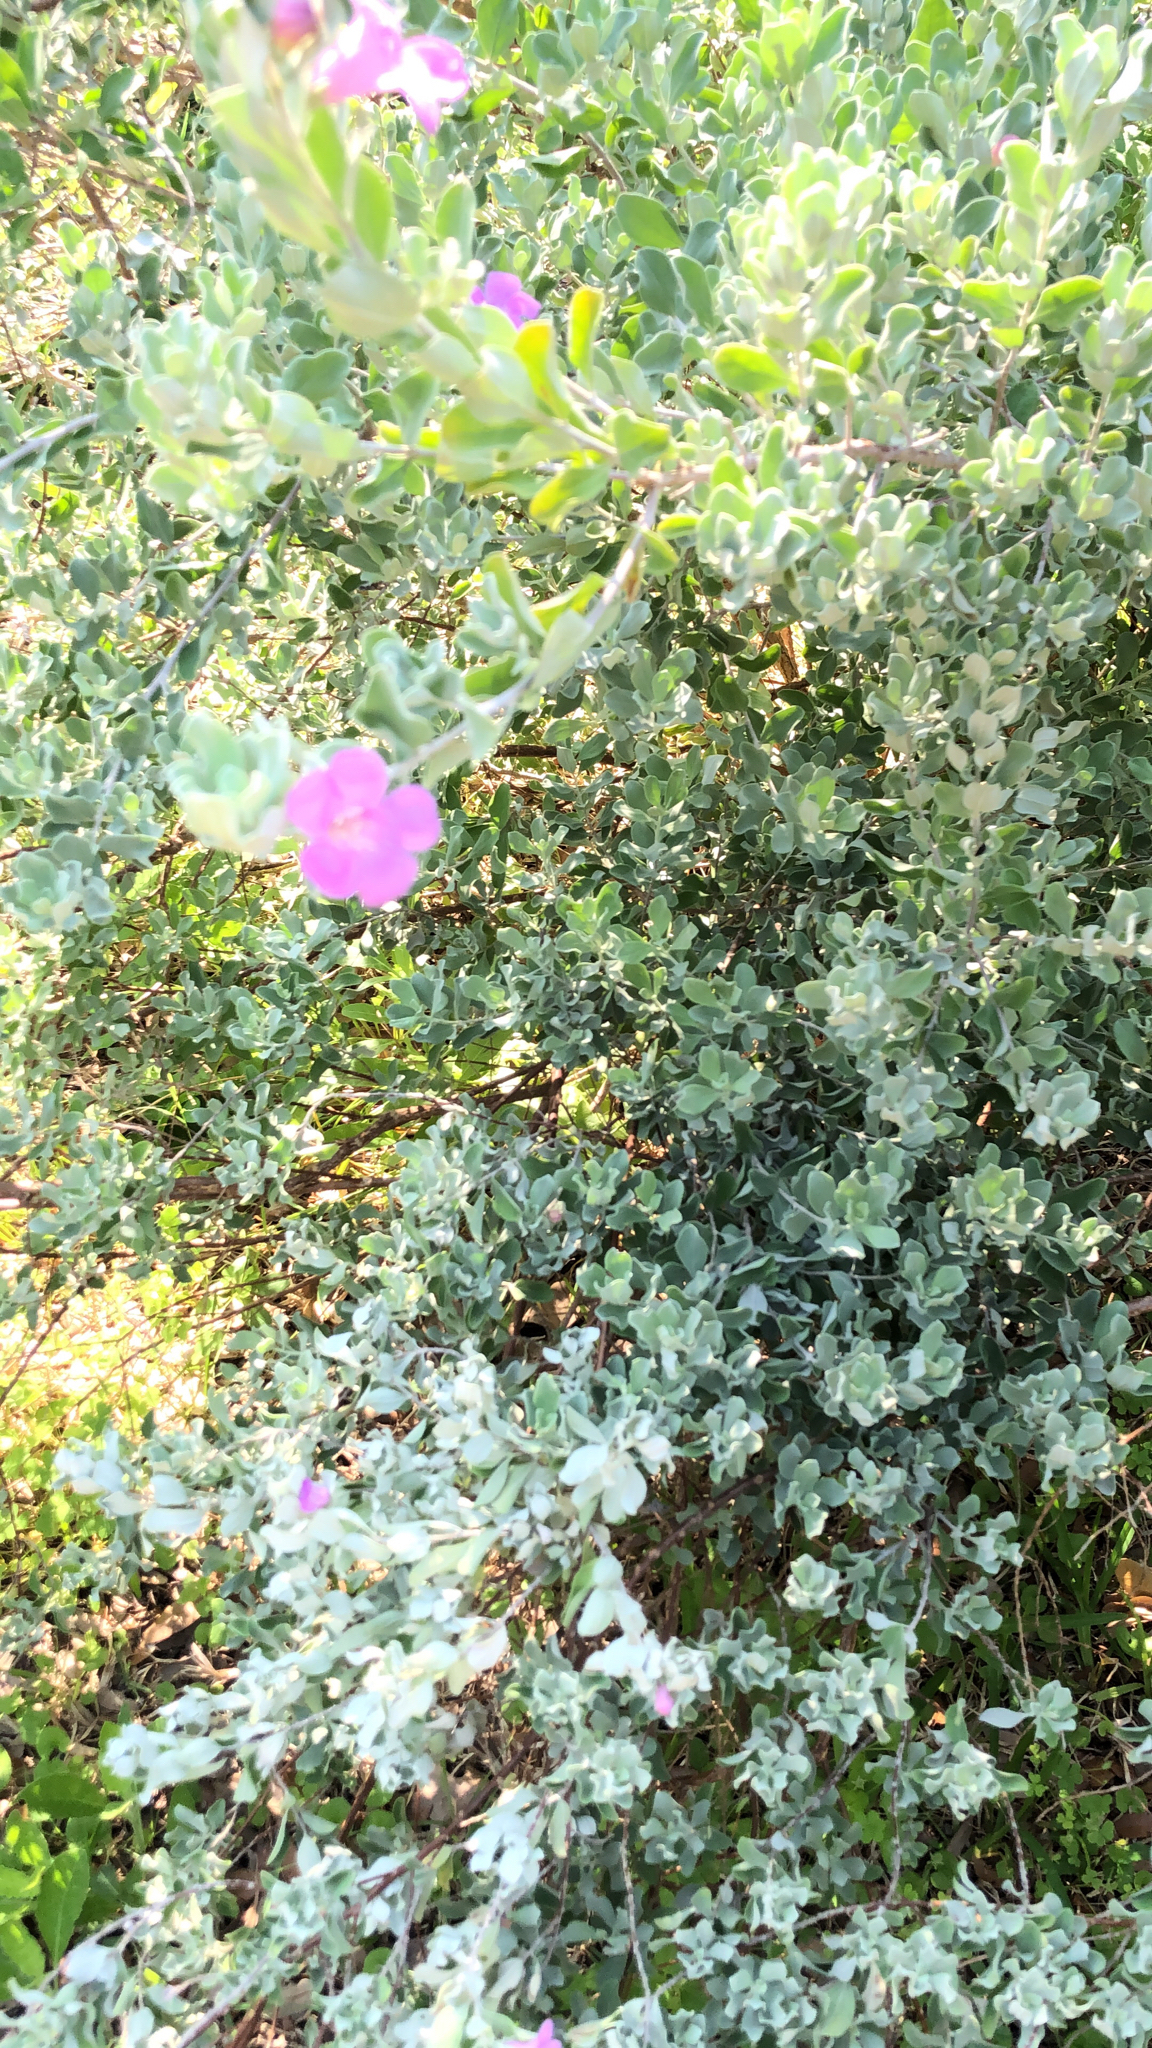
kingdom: Plantae
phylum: Tracheophyta
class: Magnoliopsida
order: Lamiales
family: Scrophulariaceae
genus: Leucophyllum
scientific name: Leucophyllum frutescens
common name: Texas silverleaf
